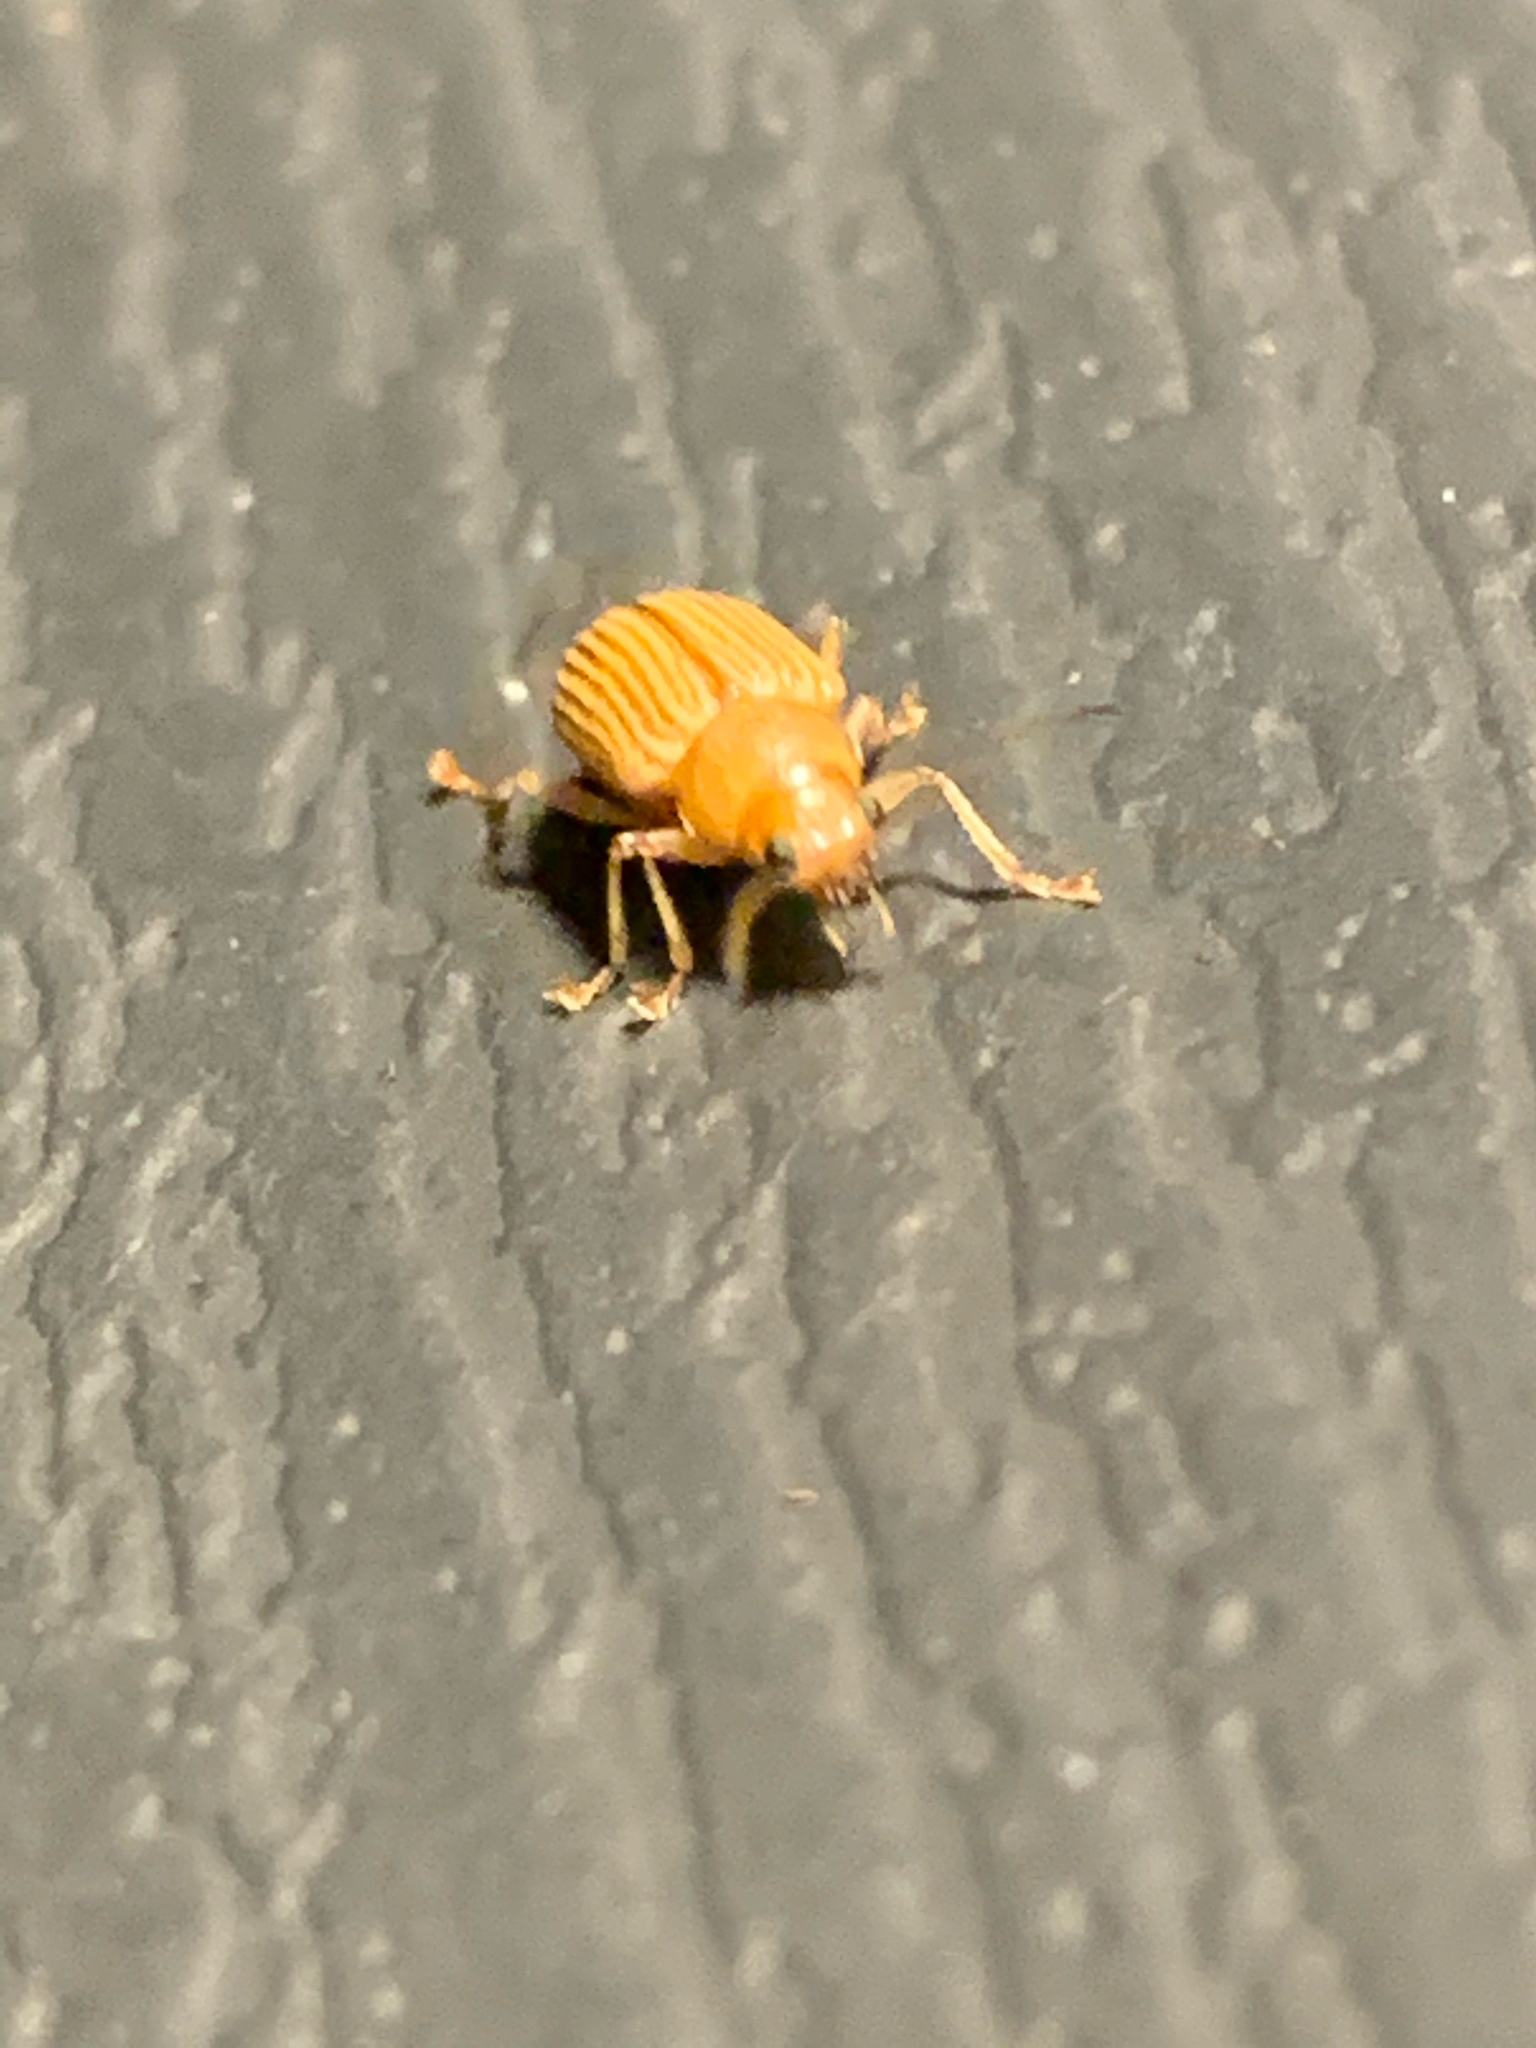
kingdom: Animalia
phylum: Arthropoda
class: Insecta
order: Coleoptera
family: Chrysomelidae
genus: Colaspis
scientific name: Colaspis brunnea
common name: Grape colaspis
